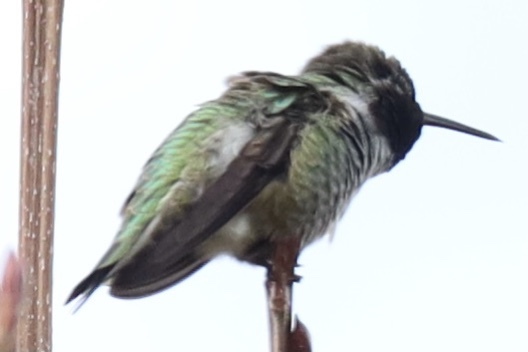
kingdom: Animalia
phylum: Chordata
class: Aves
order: Apodiformes
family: Trochilidae
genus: Calypte
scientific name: Calypte anna
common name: Anna's hummingbird
